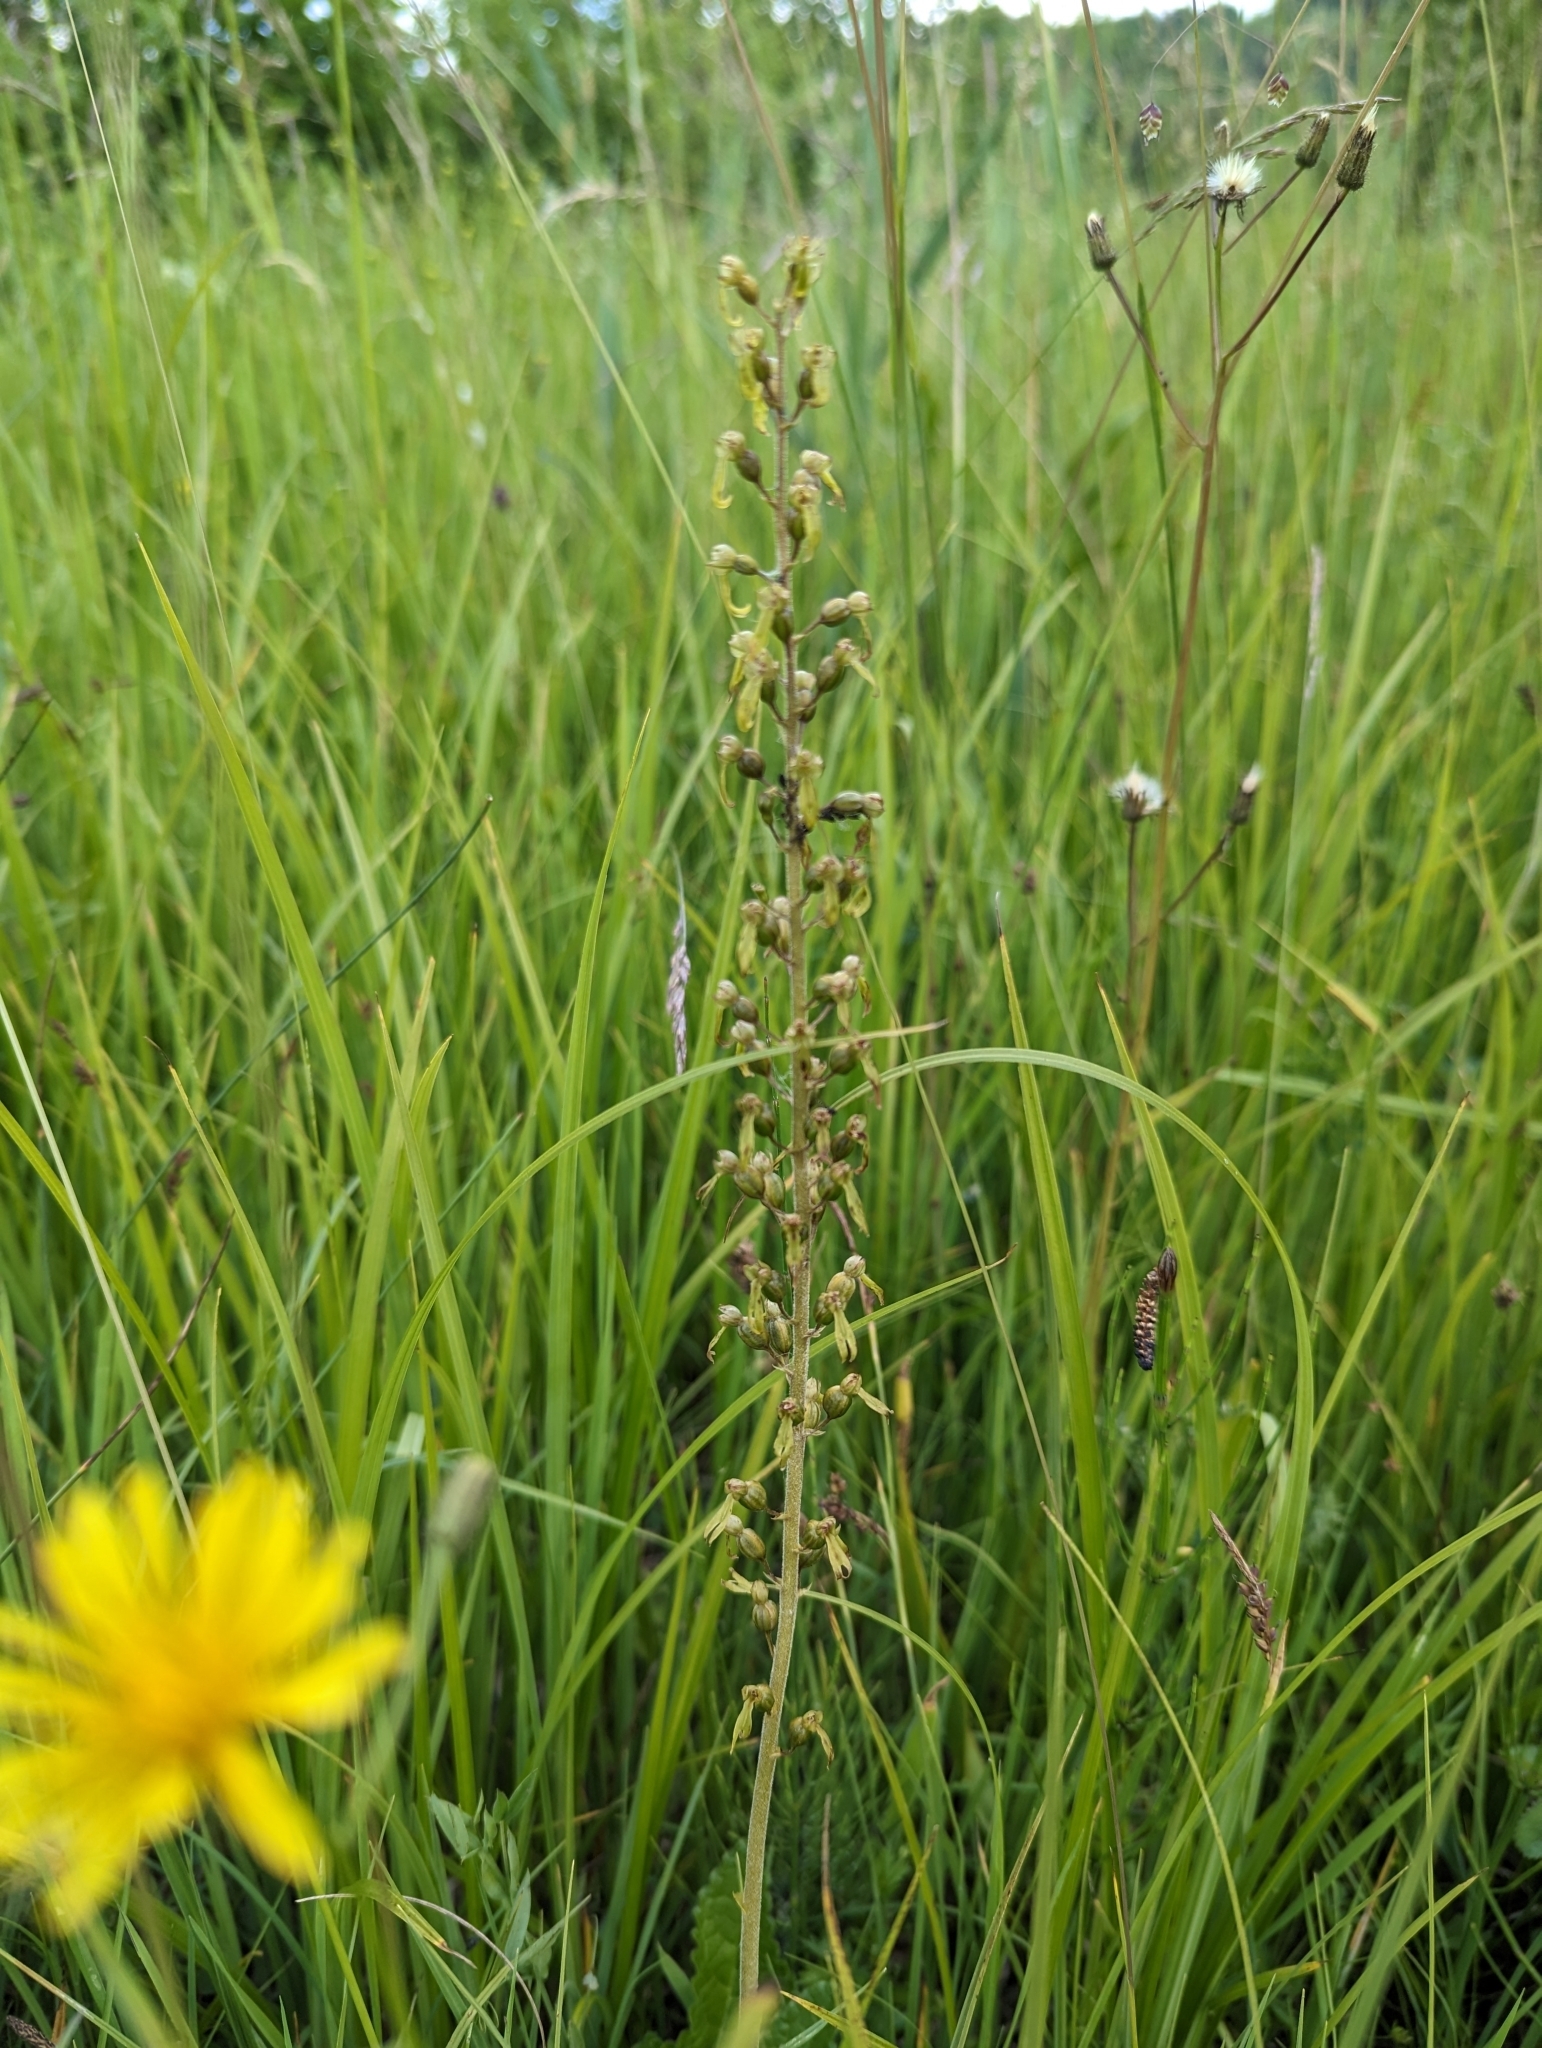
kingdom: Plantae
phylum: Tracheophyta
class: Liliopsida
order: Asparagales
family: Orchidaceae
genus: Neottia
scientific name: Neottia ovata
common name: Common twayblade
